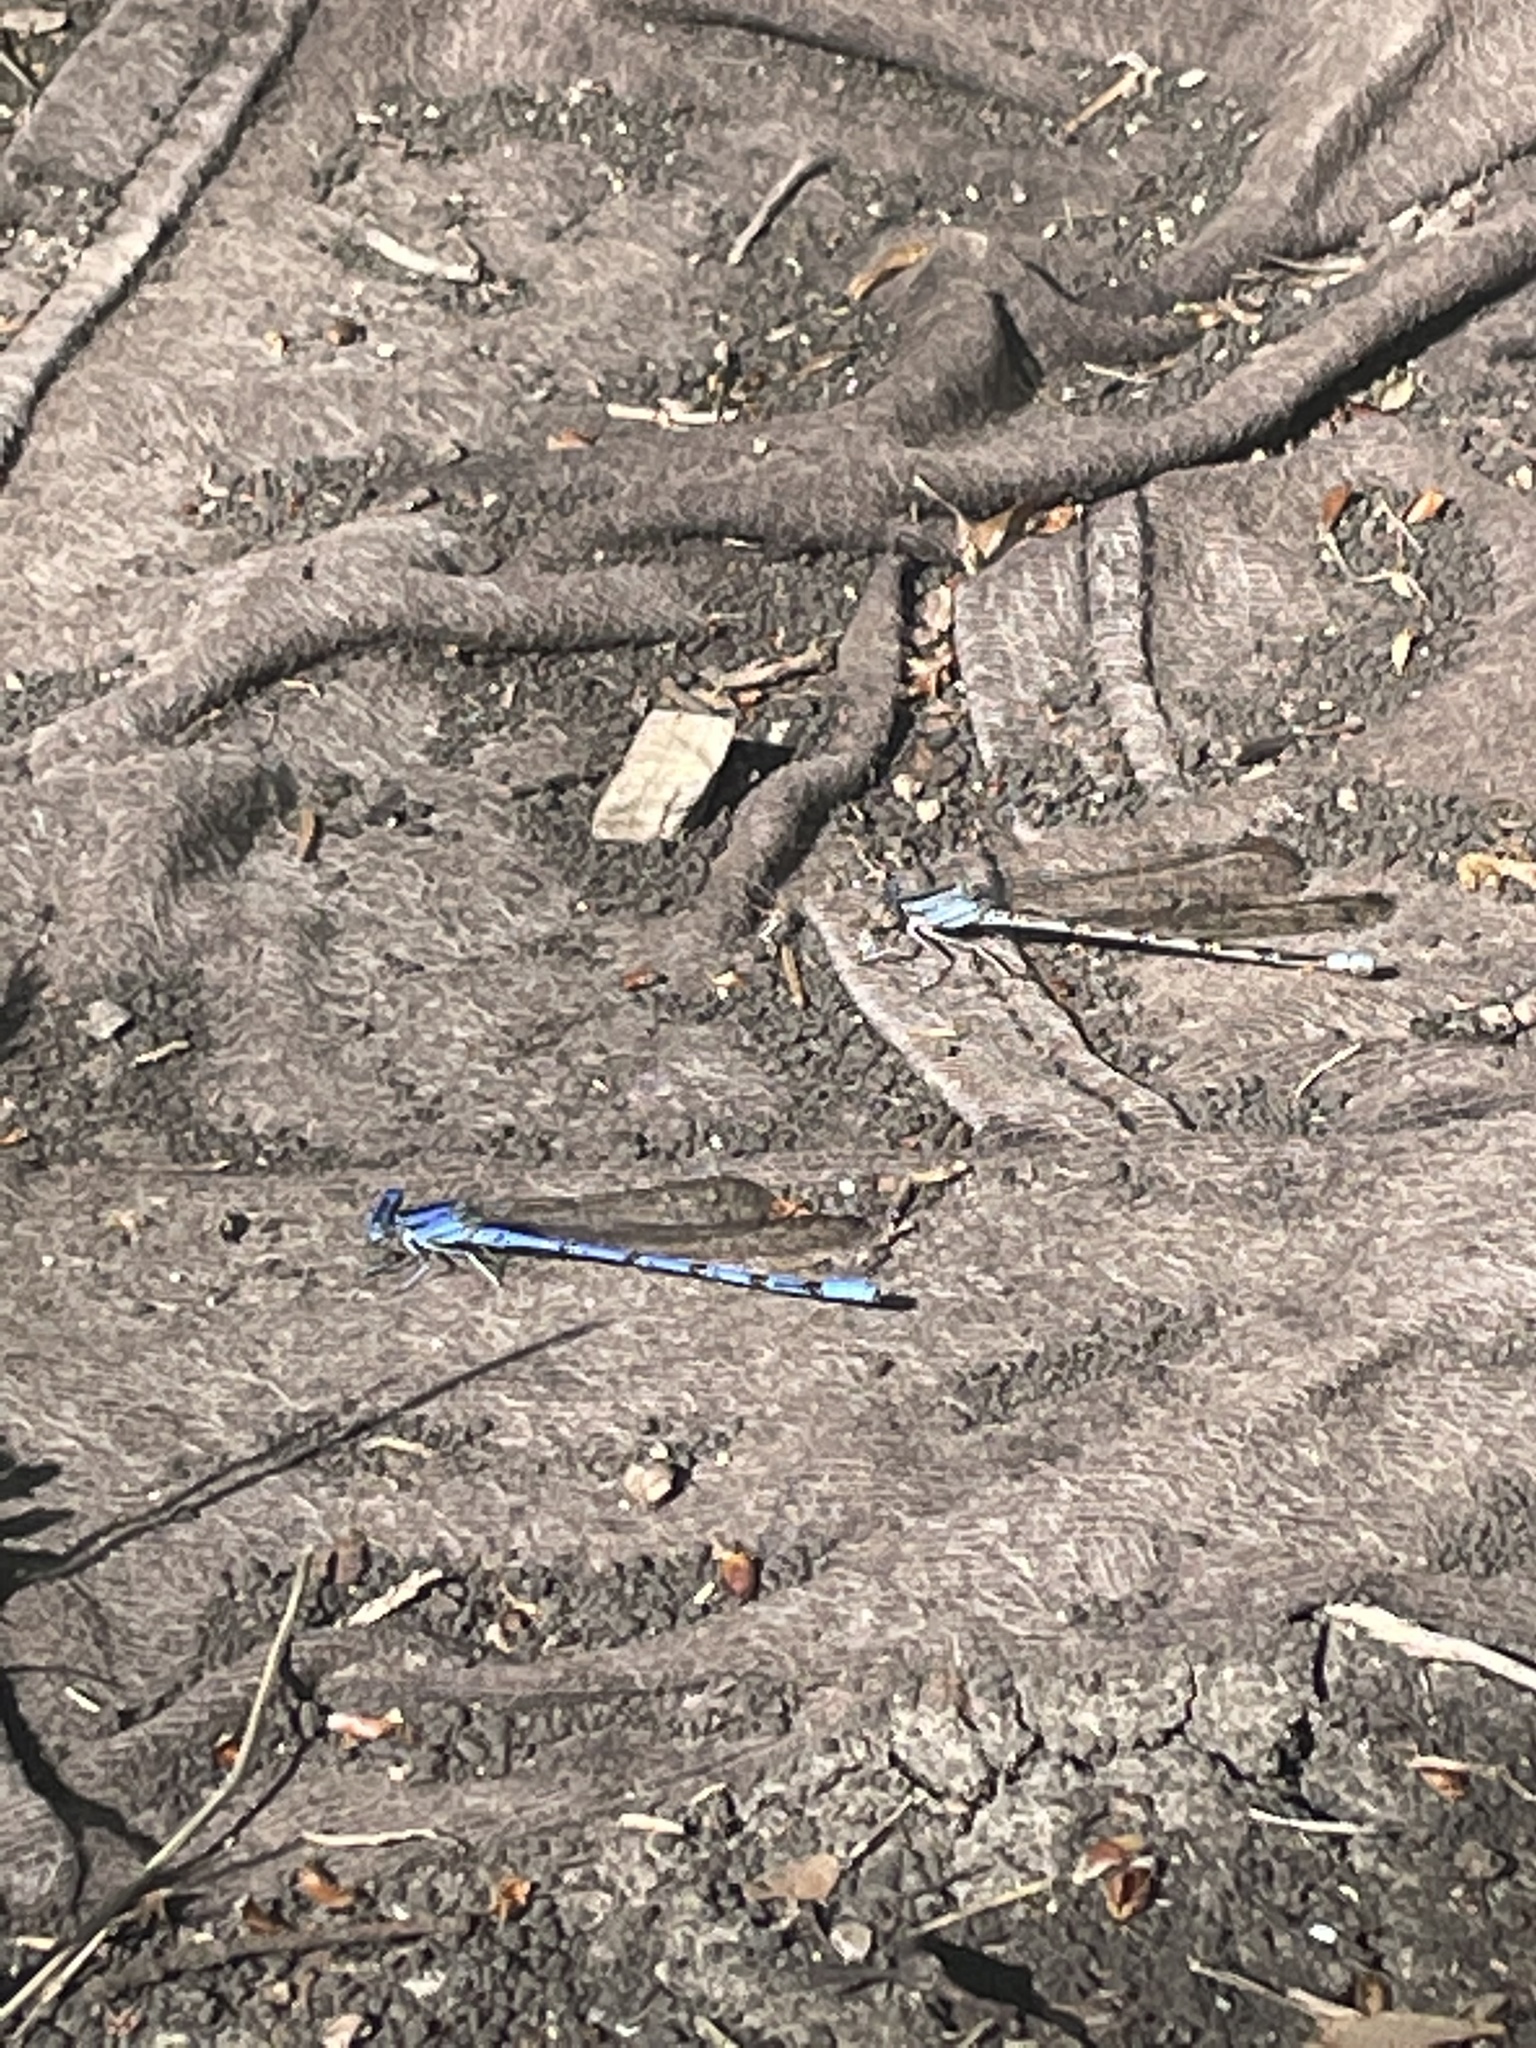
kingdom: Animalia
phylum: Arthropoda
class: Insecta
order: Odonata
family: Coenagrionidae
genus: Argia
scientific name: Argia funebris
